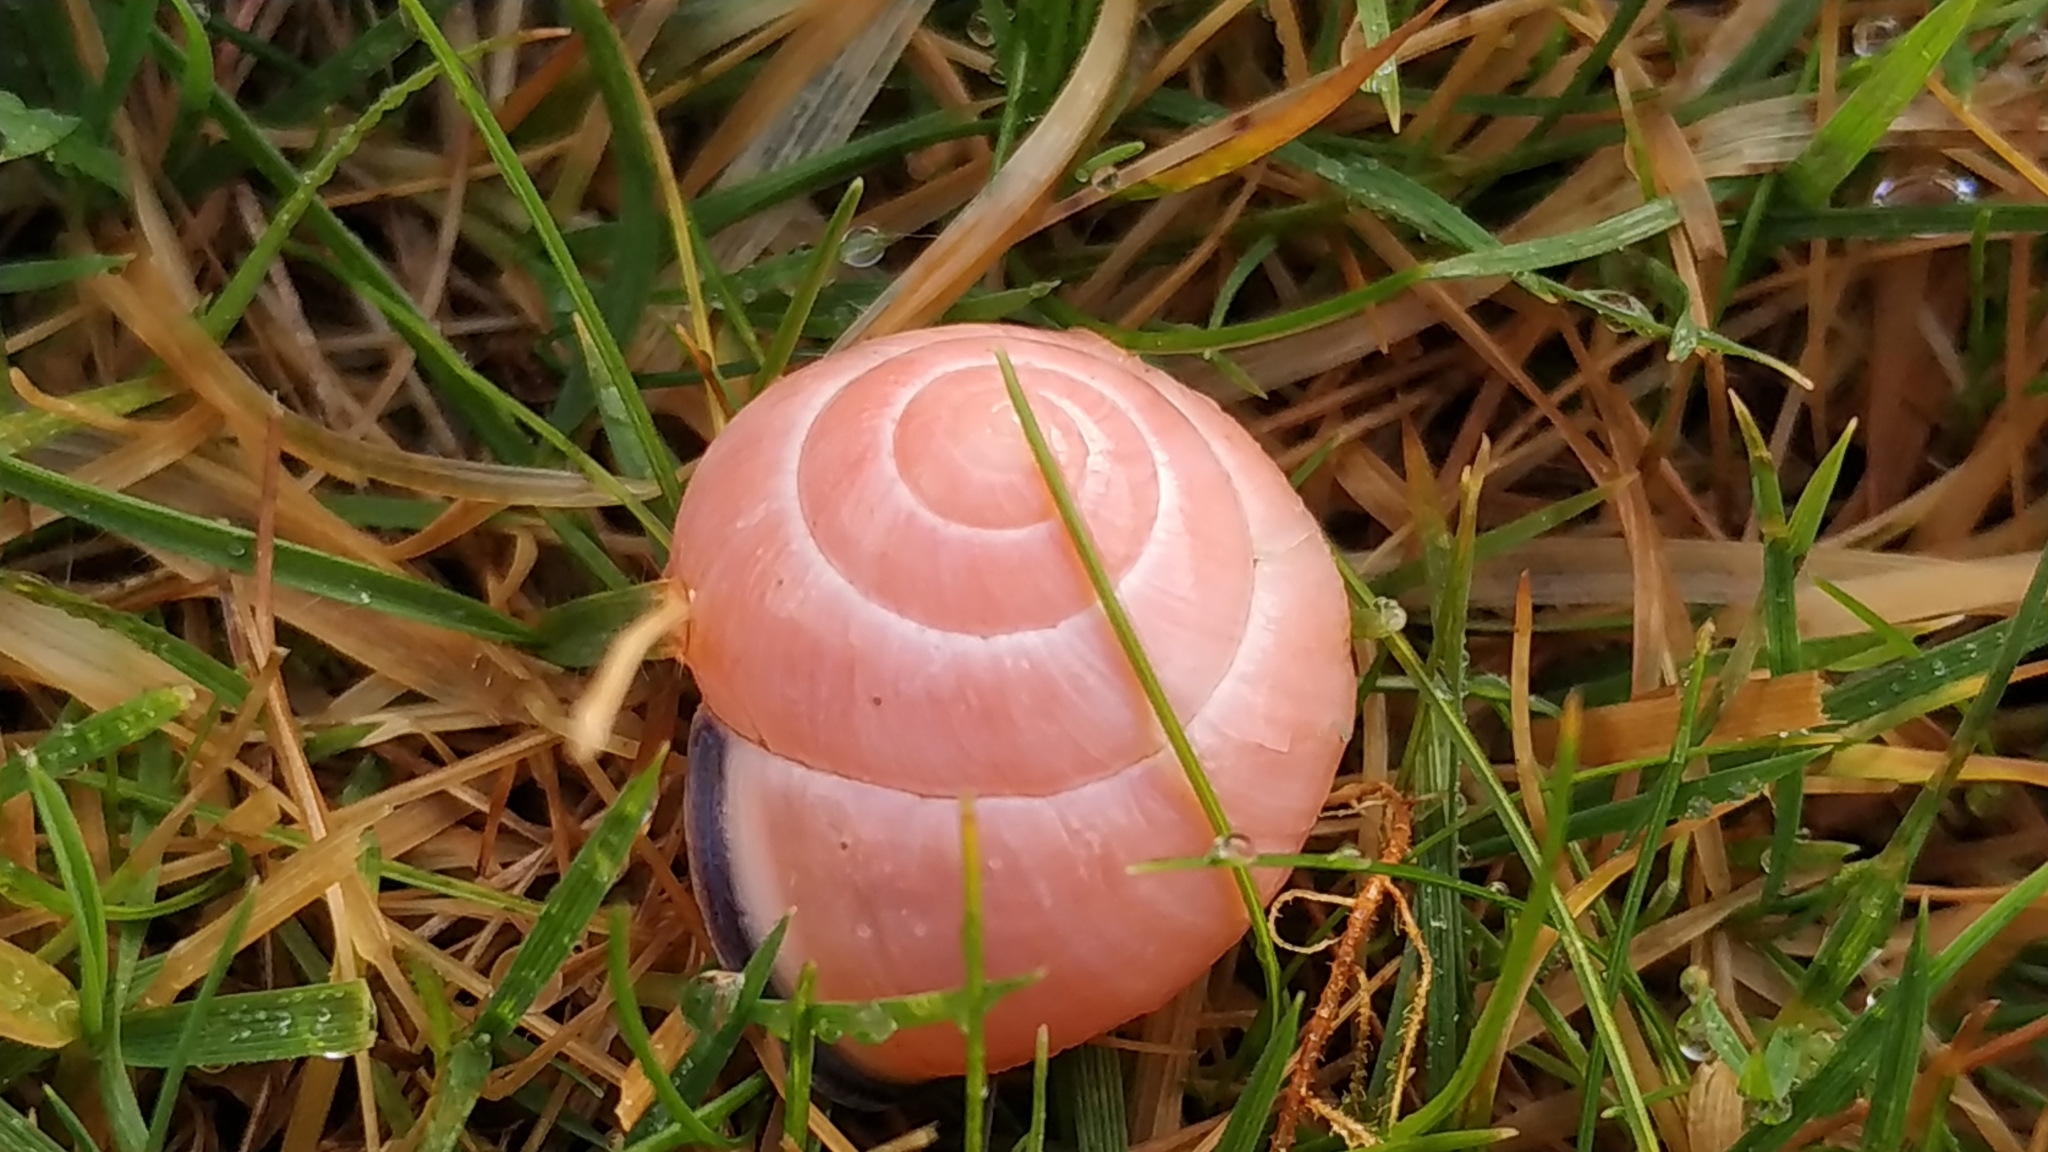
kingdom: Animalia
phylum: Mollusca
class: Gastropoda
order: Stylommatophora
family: Helicidae
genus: Cepaea
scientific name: Cepaea nemoralis
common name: Grovesnail
